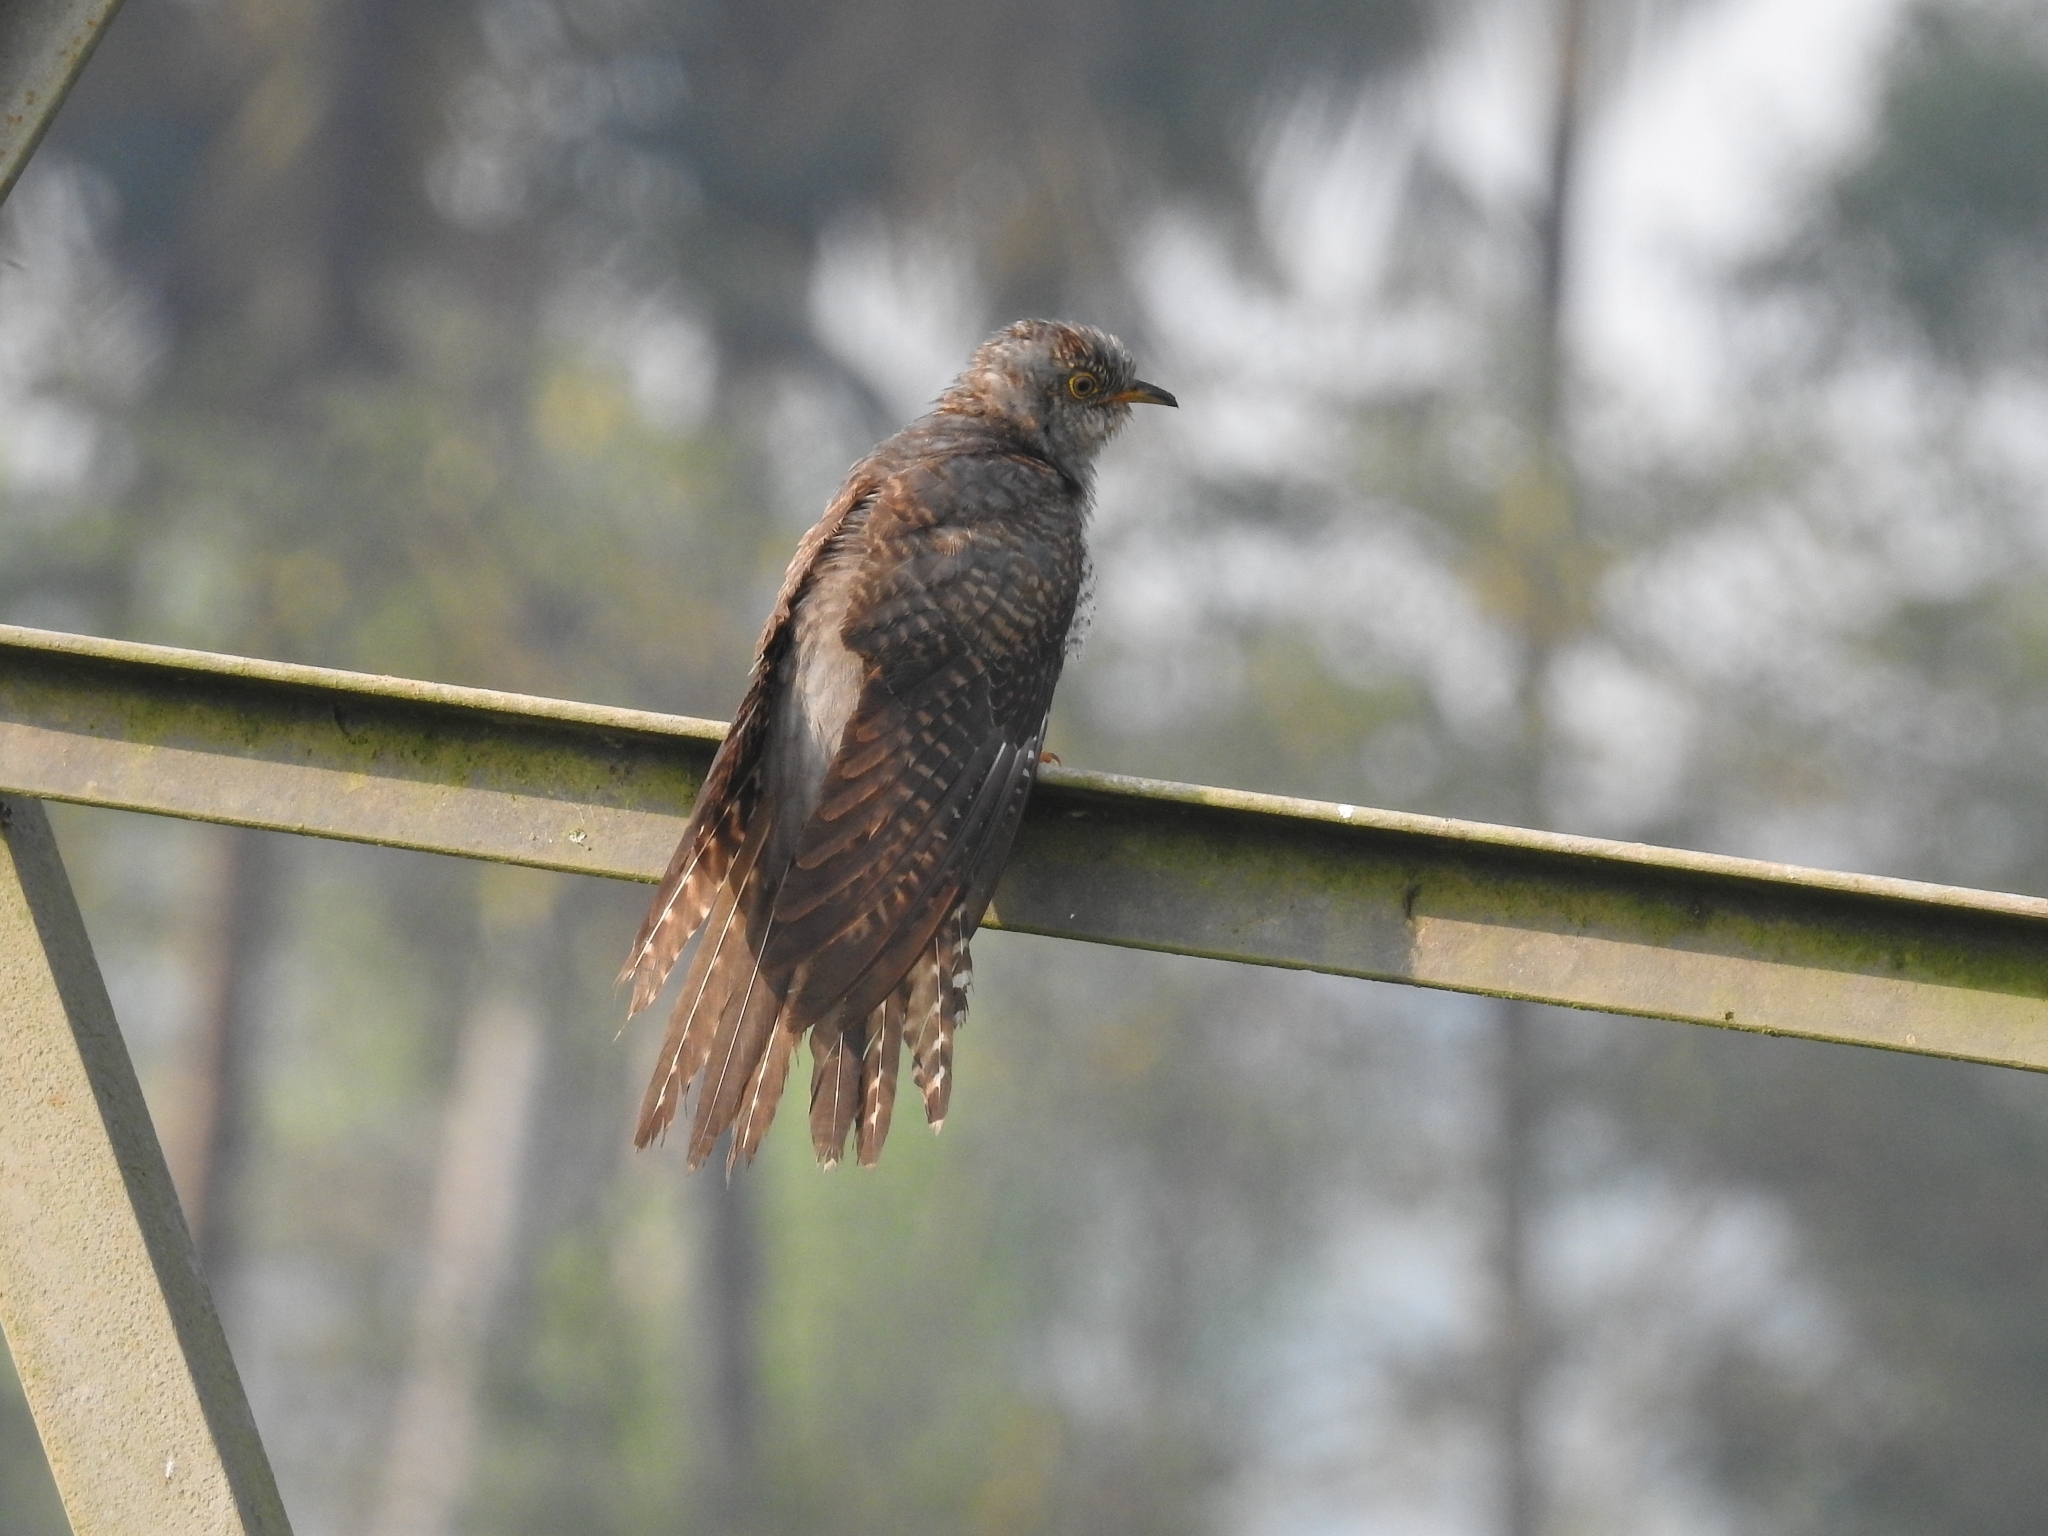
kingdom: Animalia
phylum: Chordata
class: Aves
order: Cuculiformes
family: Cuculidae
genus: Cuculus
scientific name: Cuculus canorus
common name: Common cuckoo
